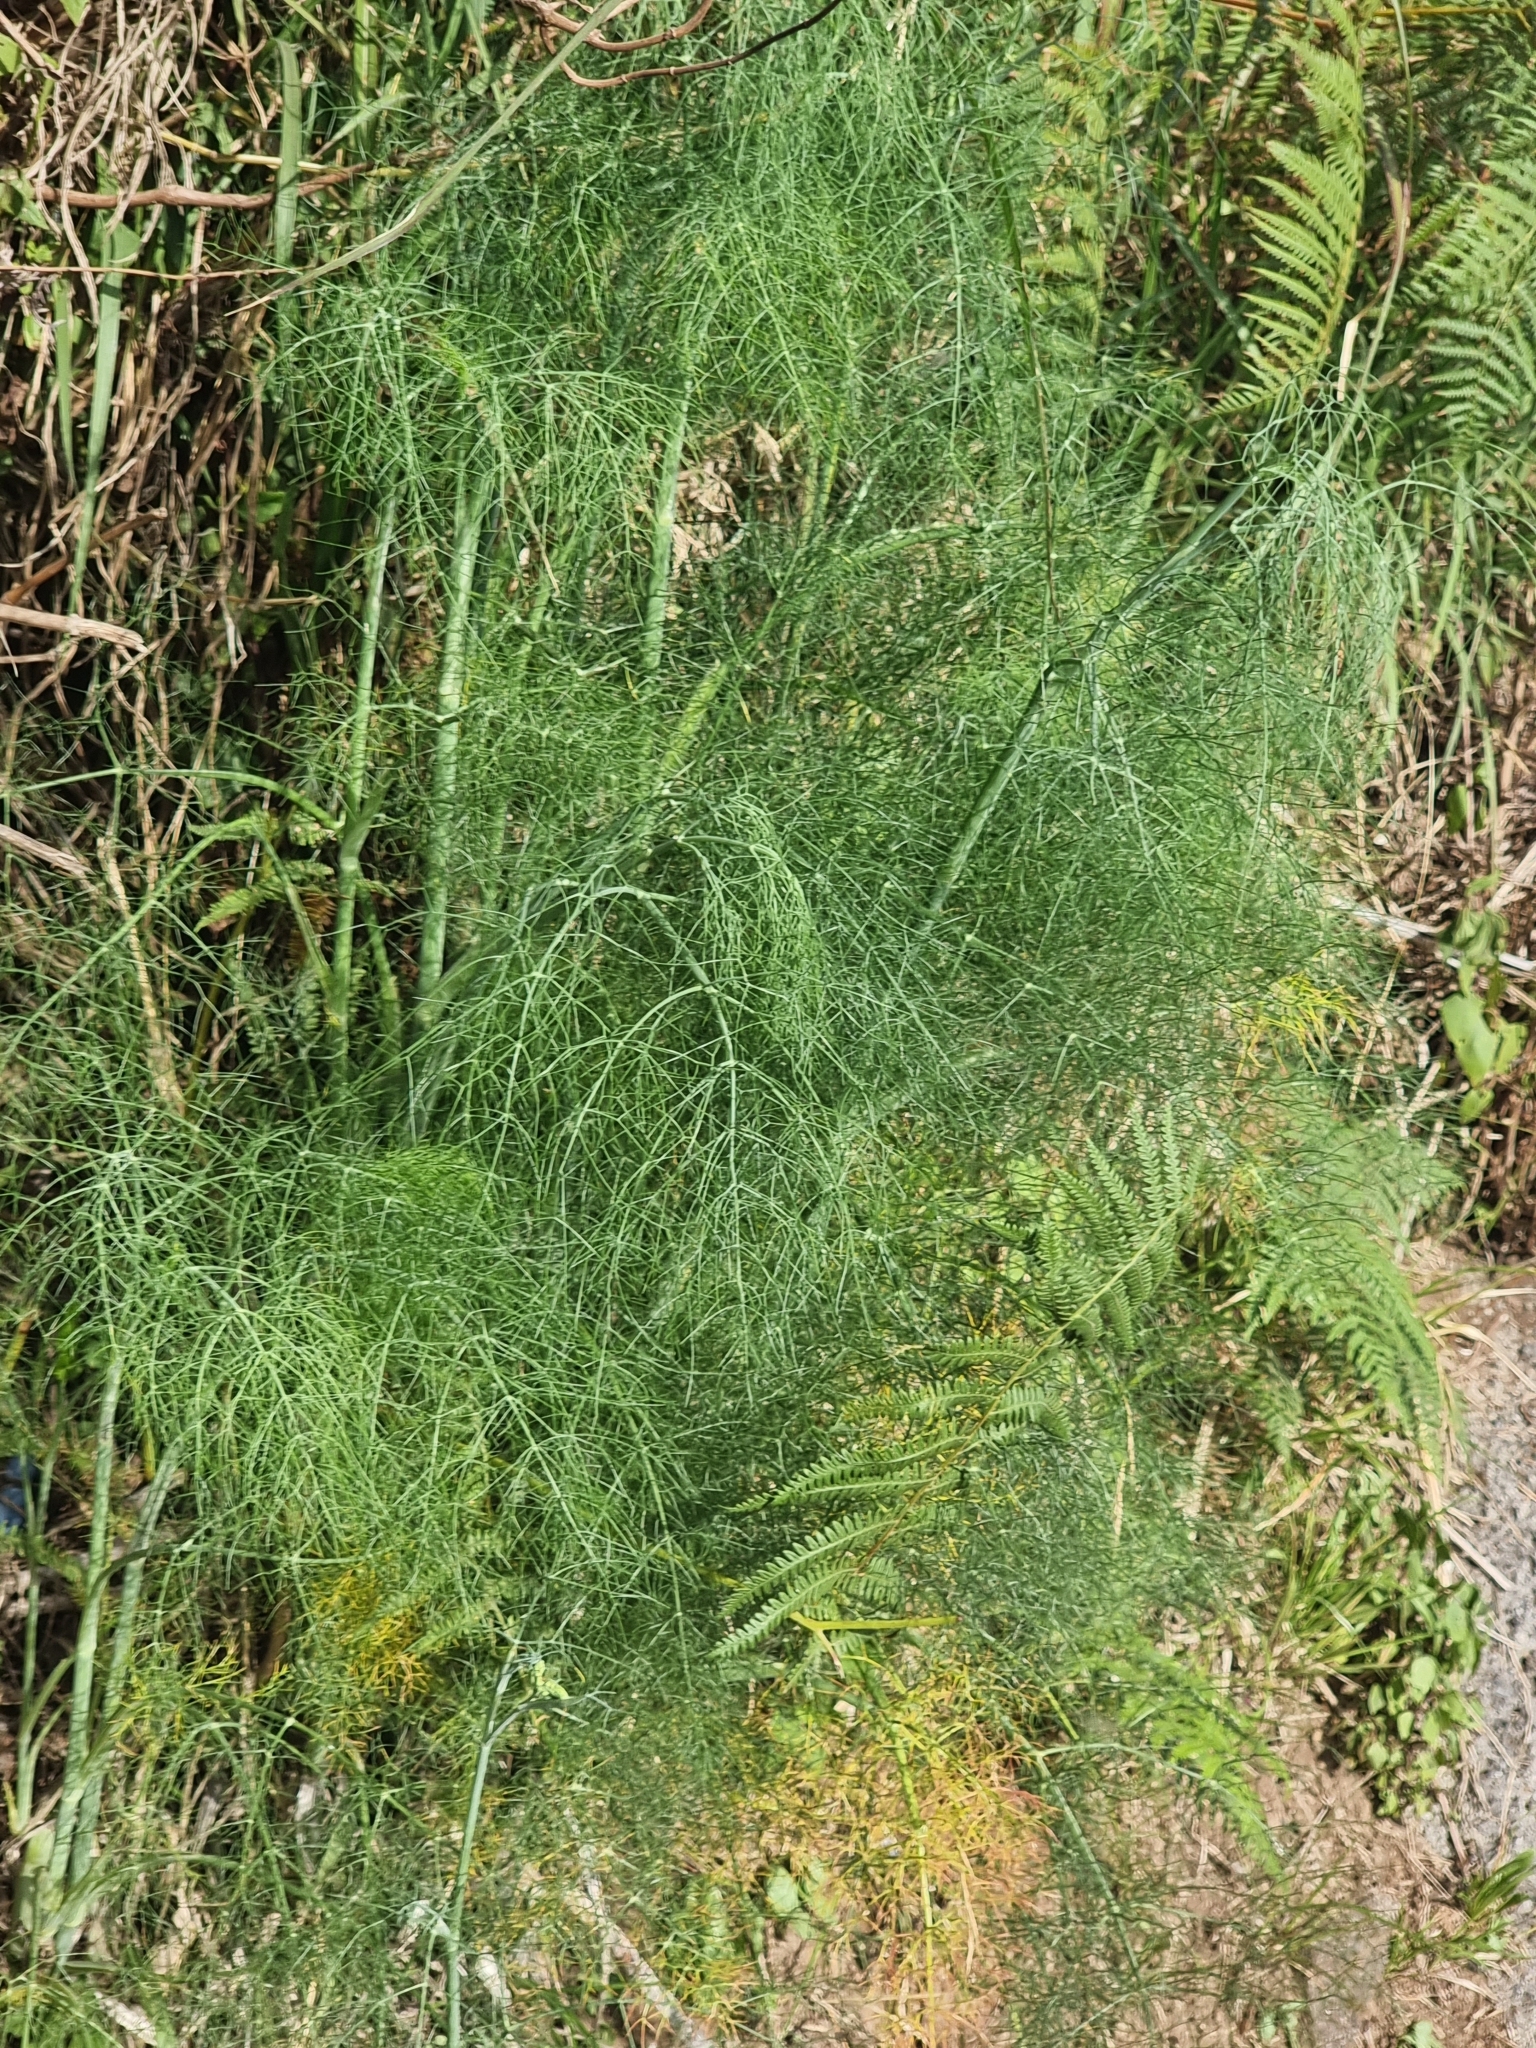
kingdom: Plantae
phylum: Tracheophyta
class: Magnoliopsida
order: Apiales
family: Apiaceae
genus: Foeniculum
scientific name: Foeniculum vulgare
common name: Fennel
